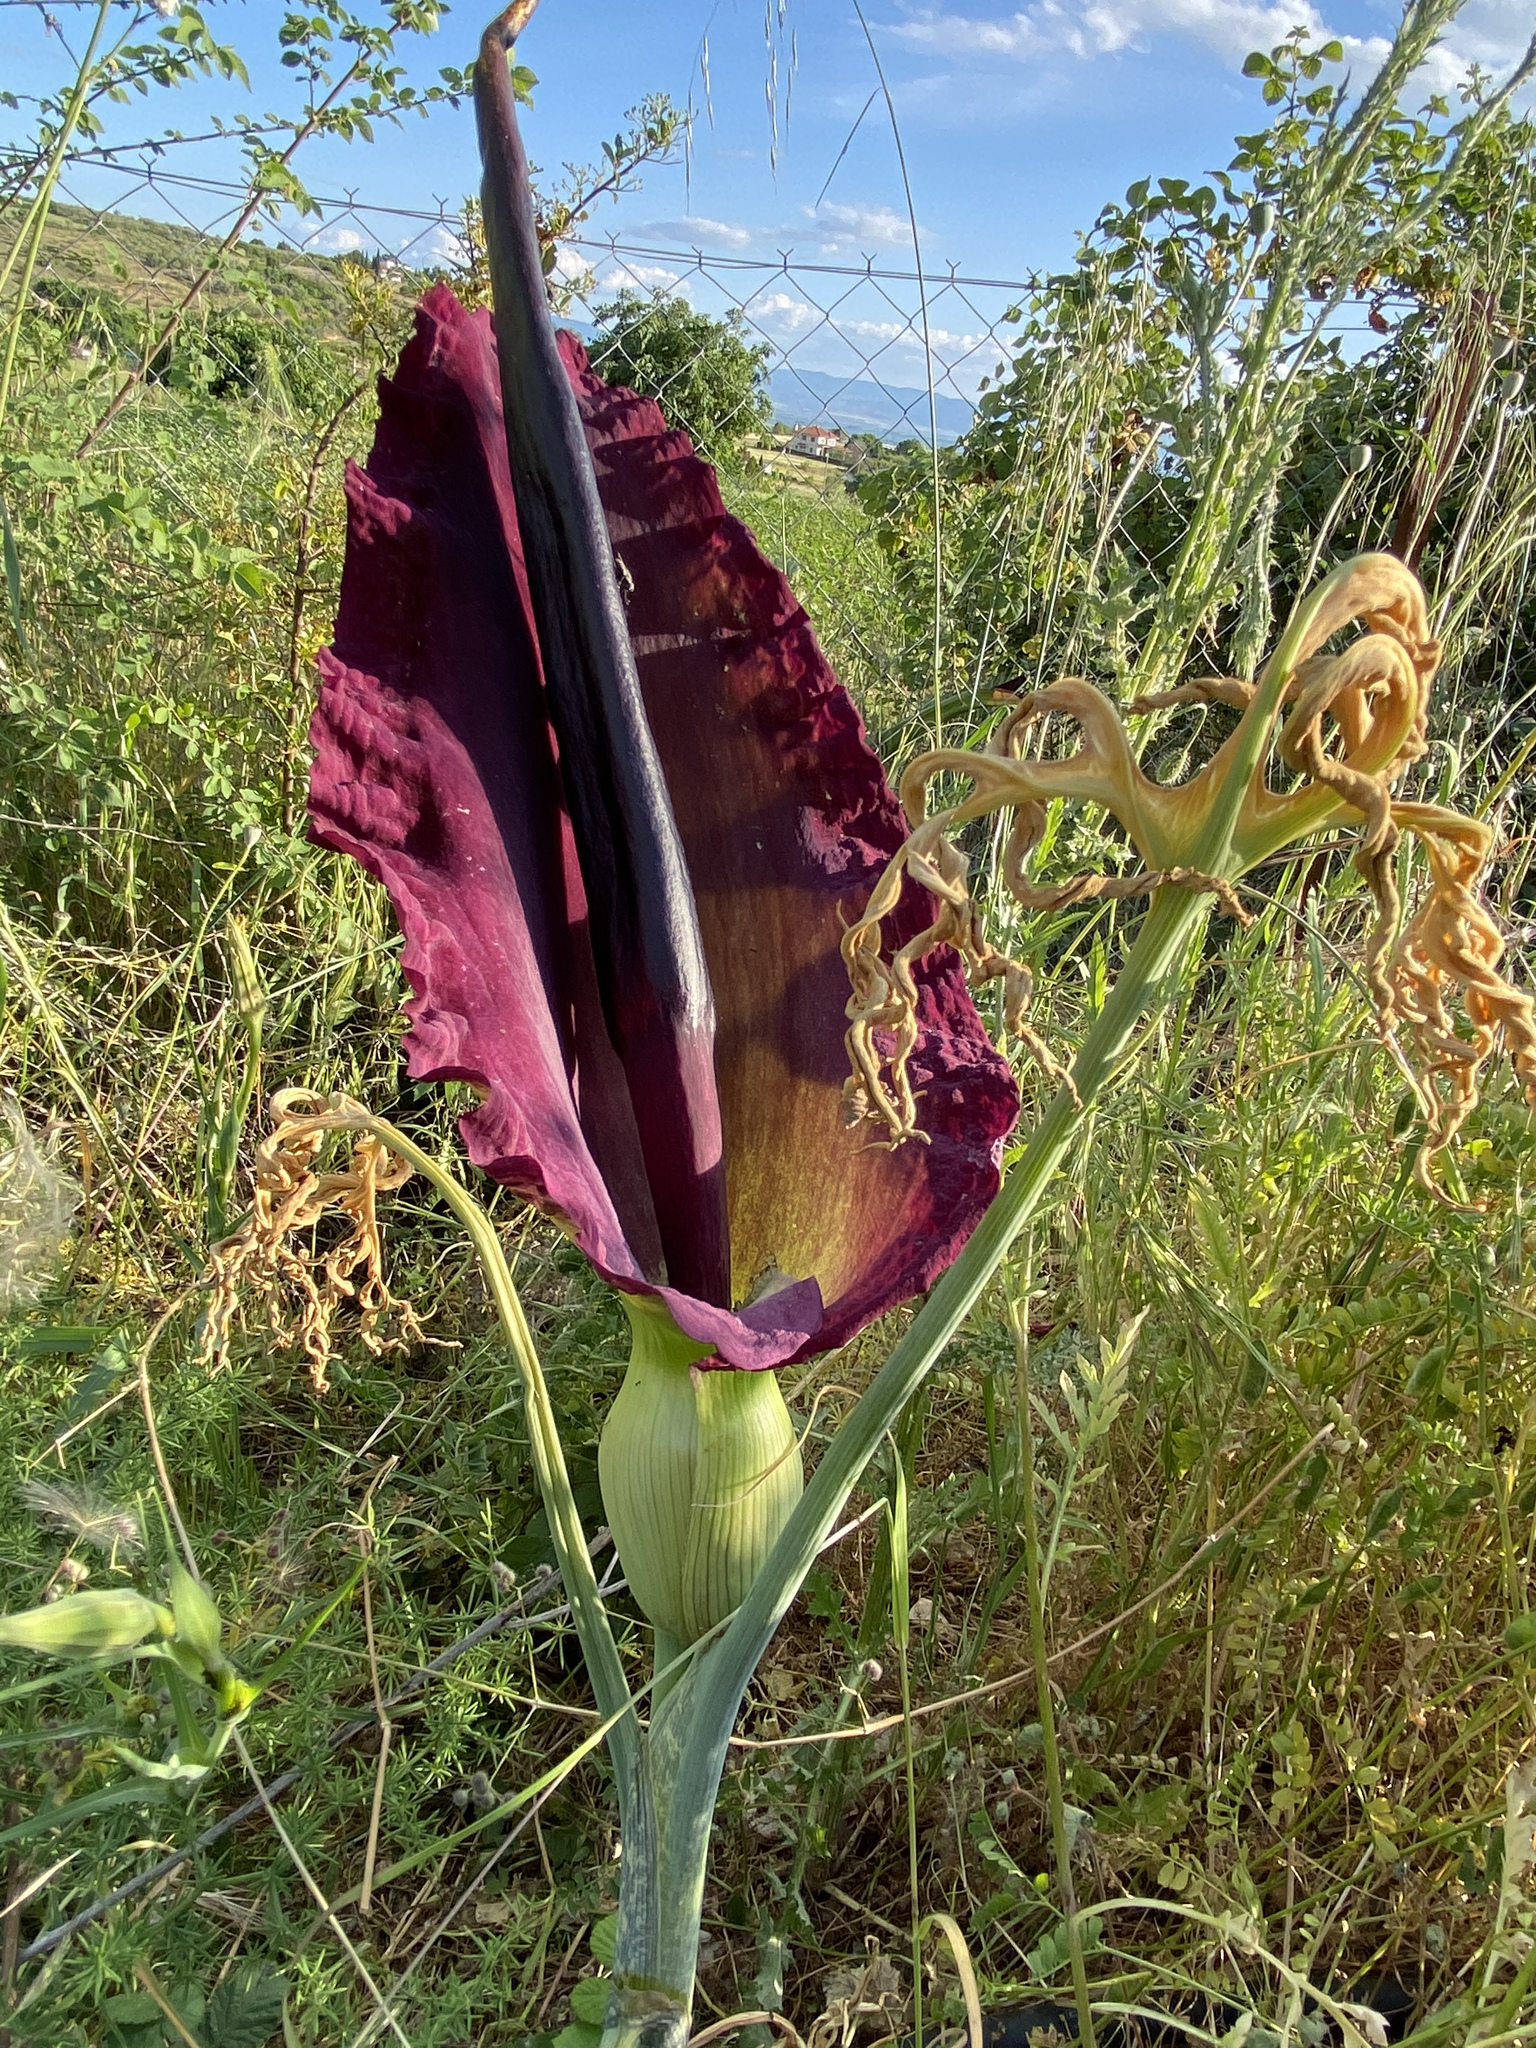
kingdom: Plantae
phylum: Tracheophyta
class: Liliopsida
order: Alismatales
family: Araceae
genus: Dracunculus
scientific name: Dracunculus vulgaris
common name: Dragon arum
